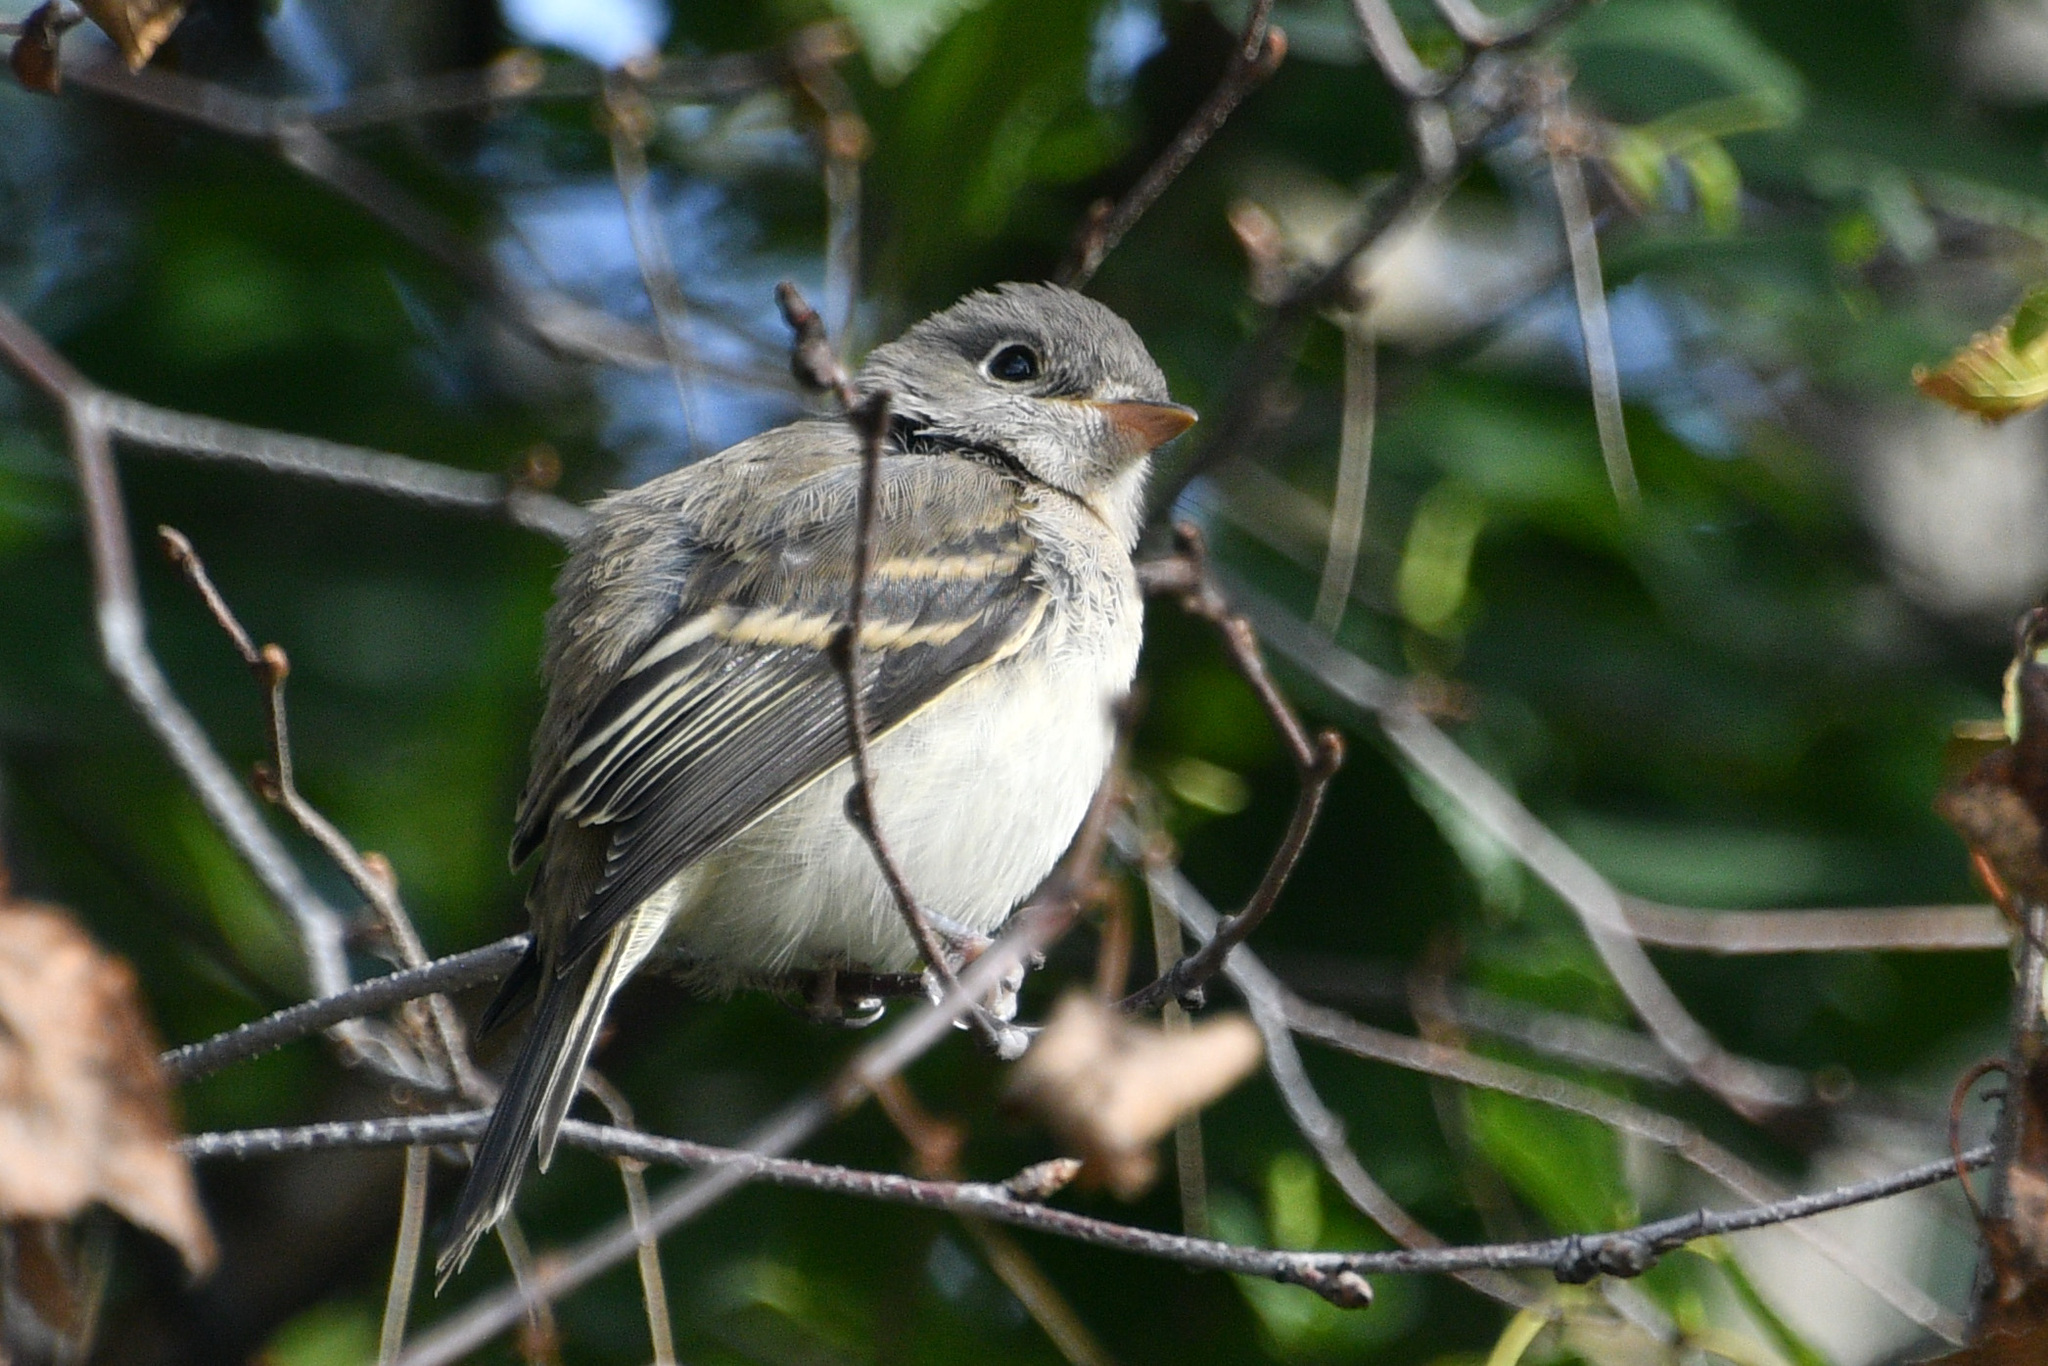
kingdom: Animalia
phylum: Chordata
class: Aves
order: Passeriformes
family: Tyrannidae
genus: Empidonax
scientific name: Empidonax minimus
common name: Least flycatcher
